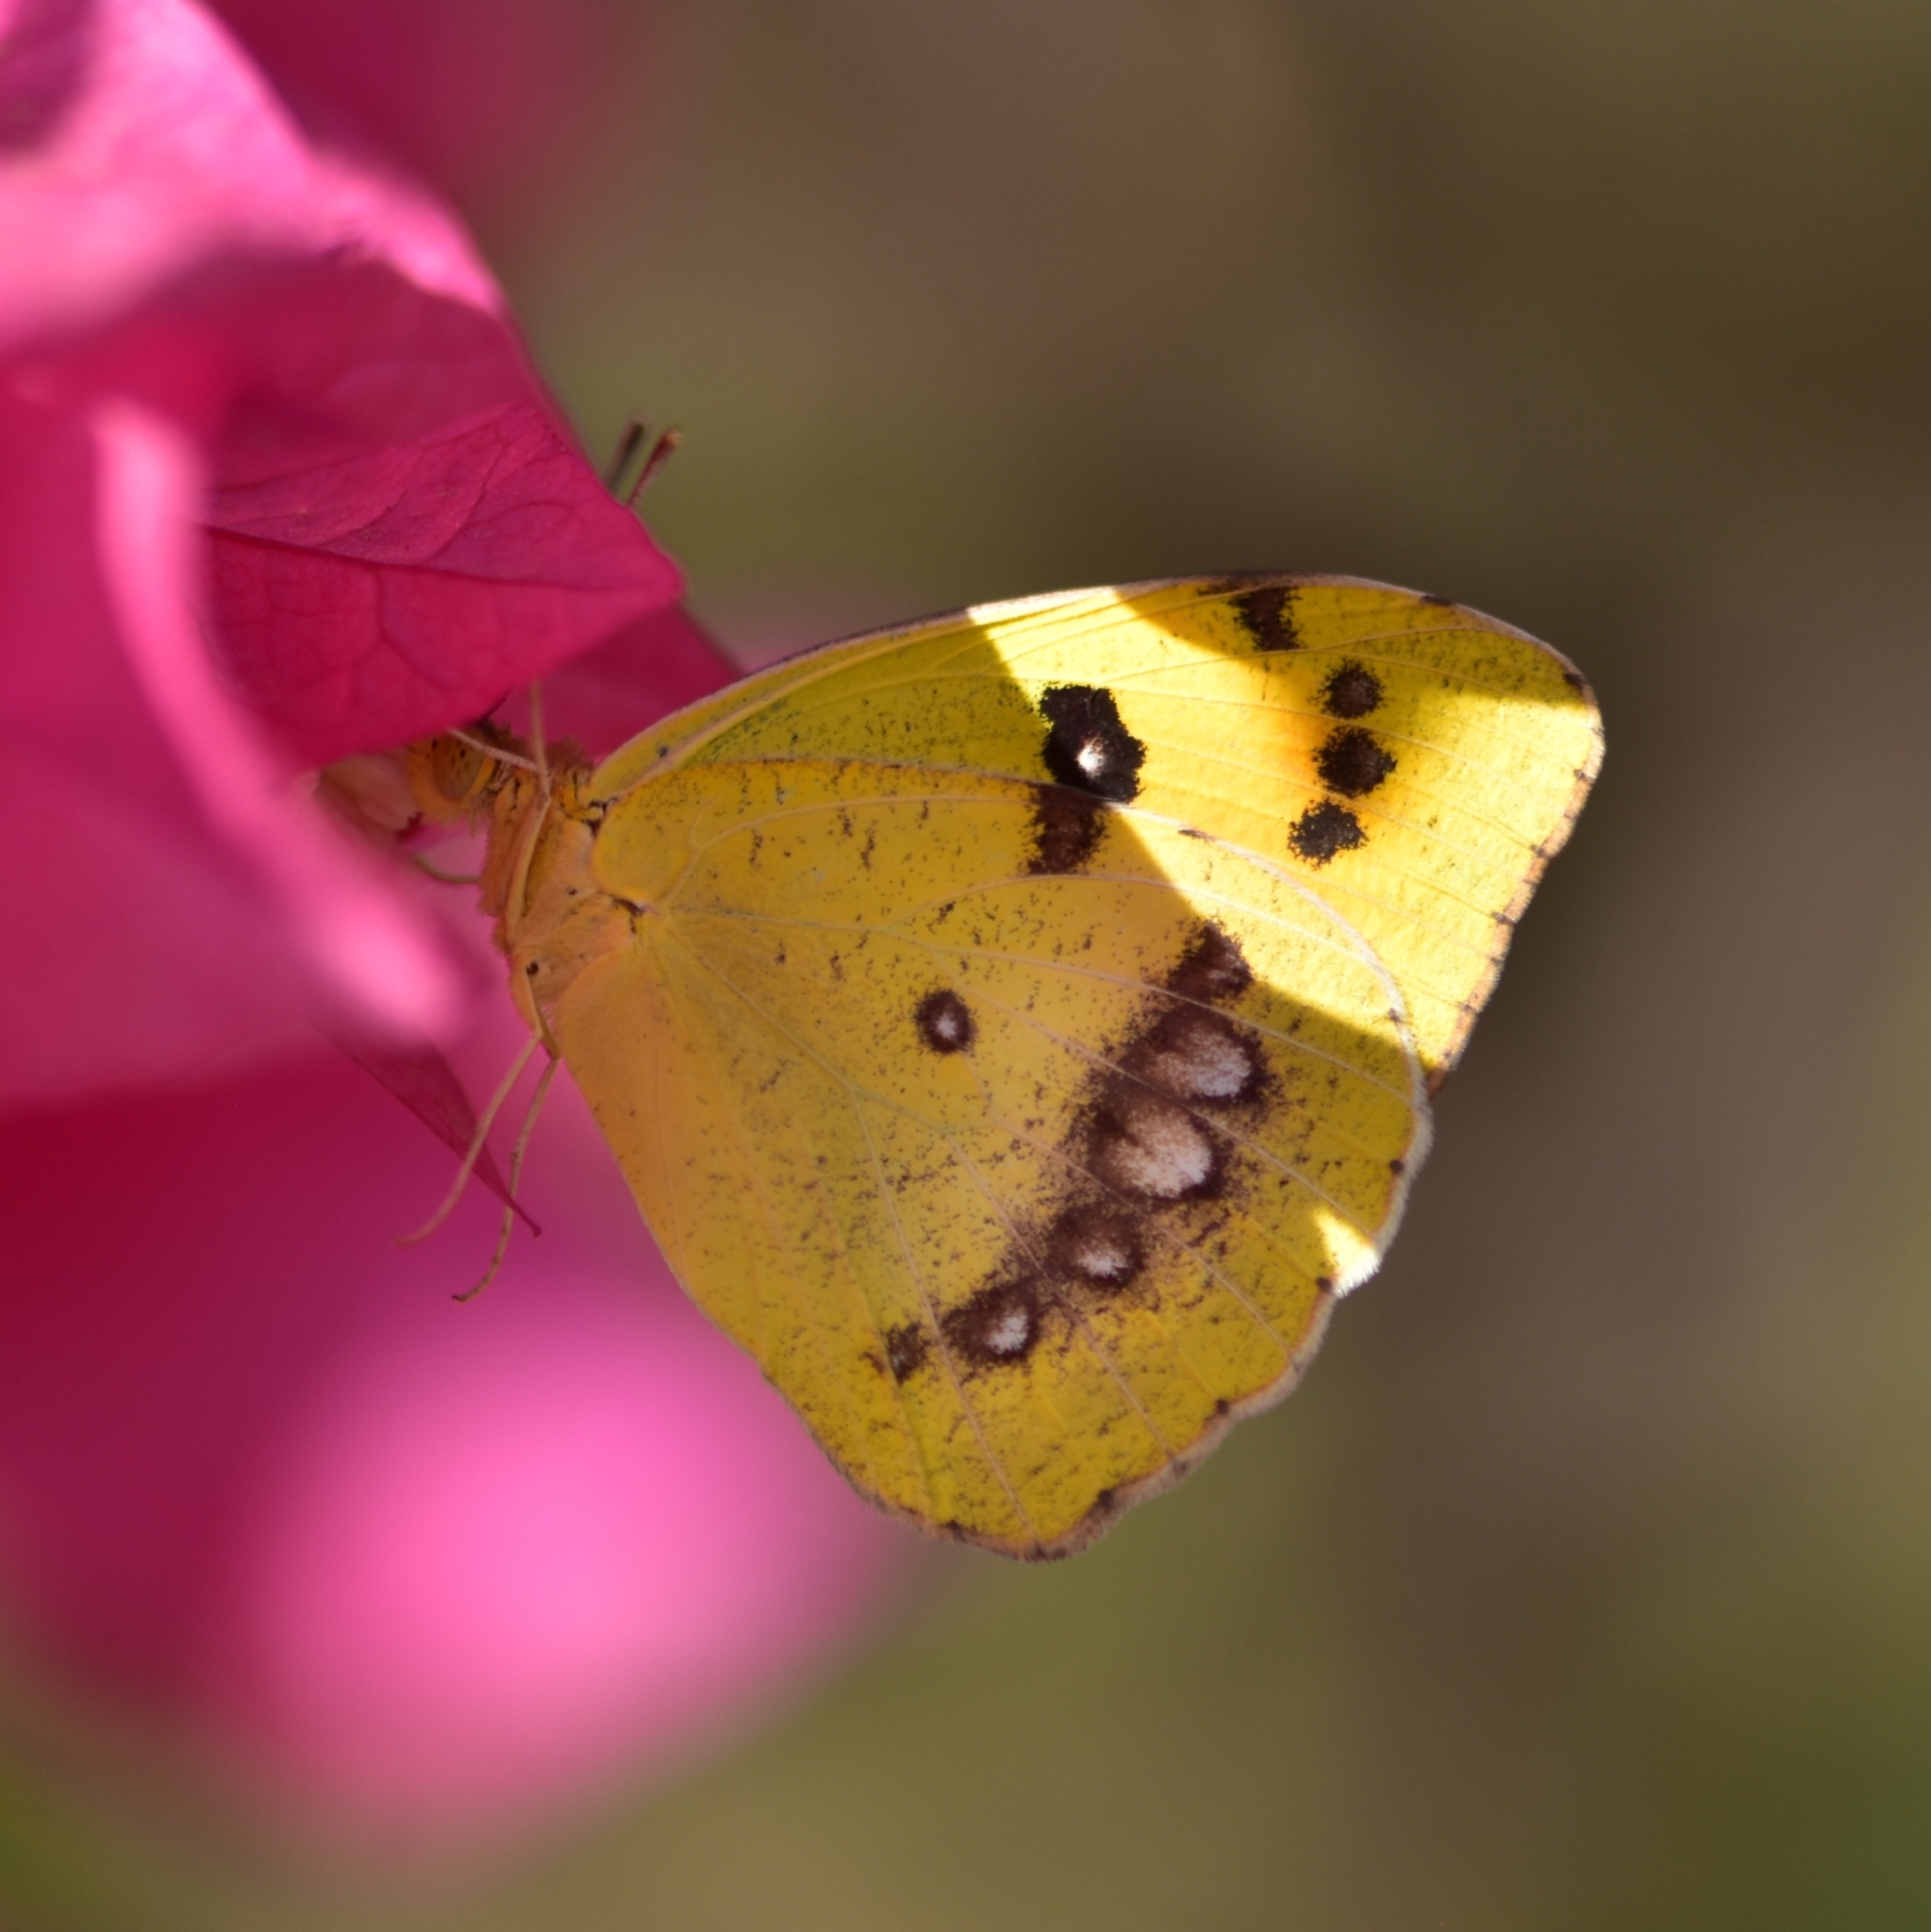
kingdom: Animalia
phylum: Arthropoda
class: Insecta
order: Lepidoptera
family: Pieridae
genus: Ixias
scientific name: Ixias marianne
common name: White orange tip
